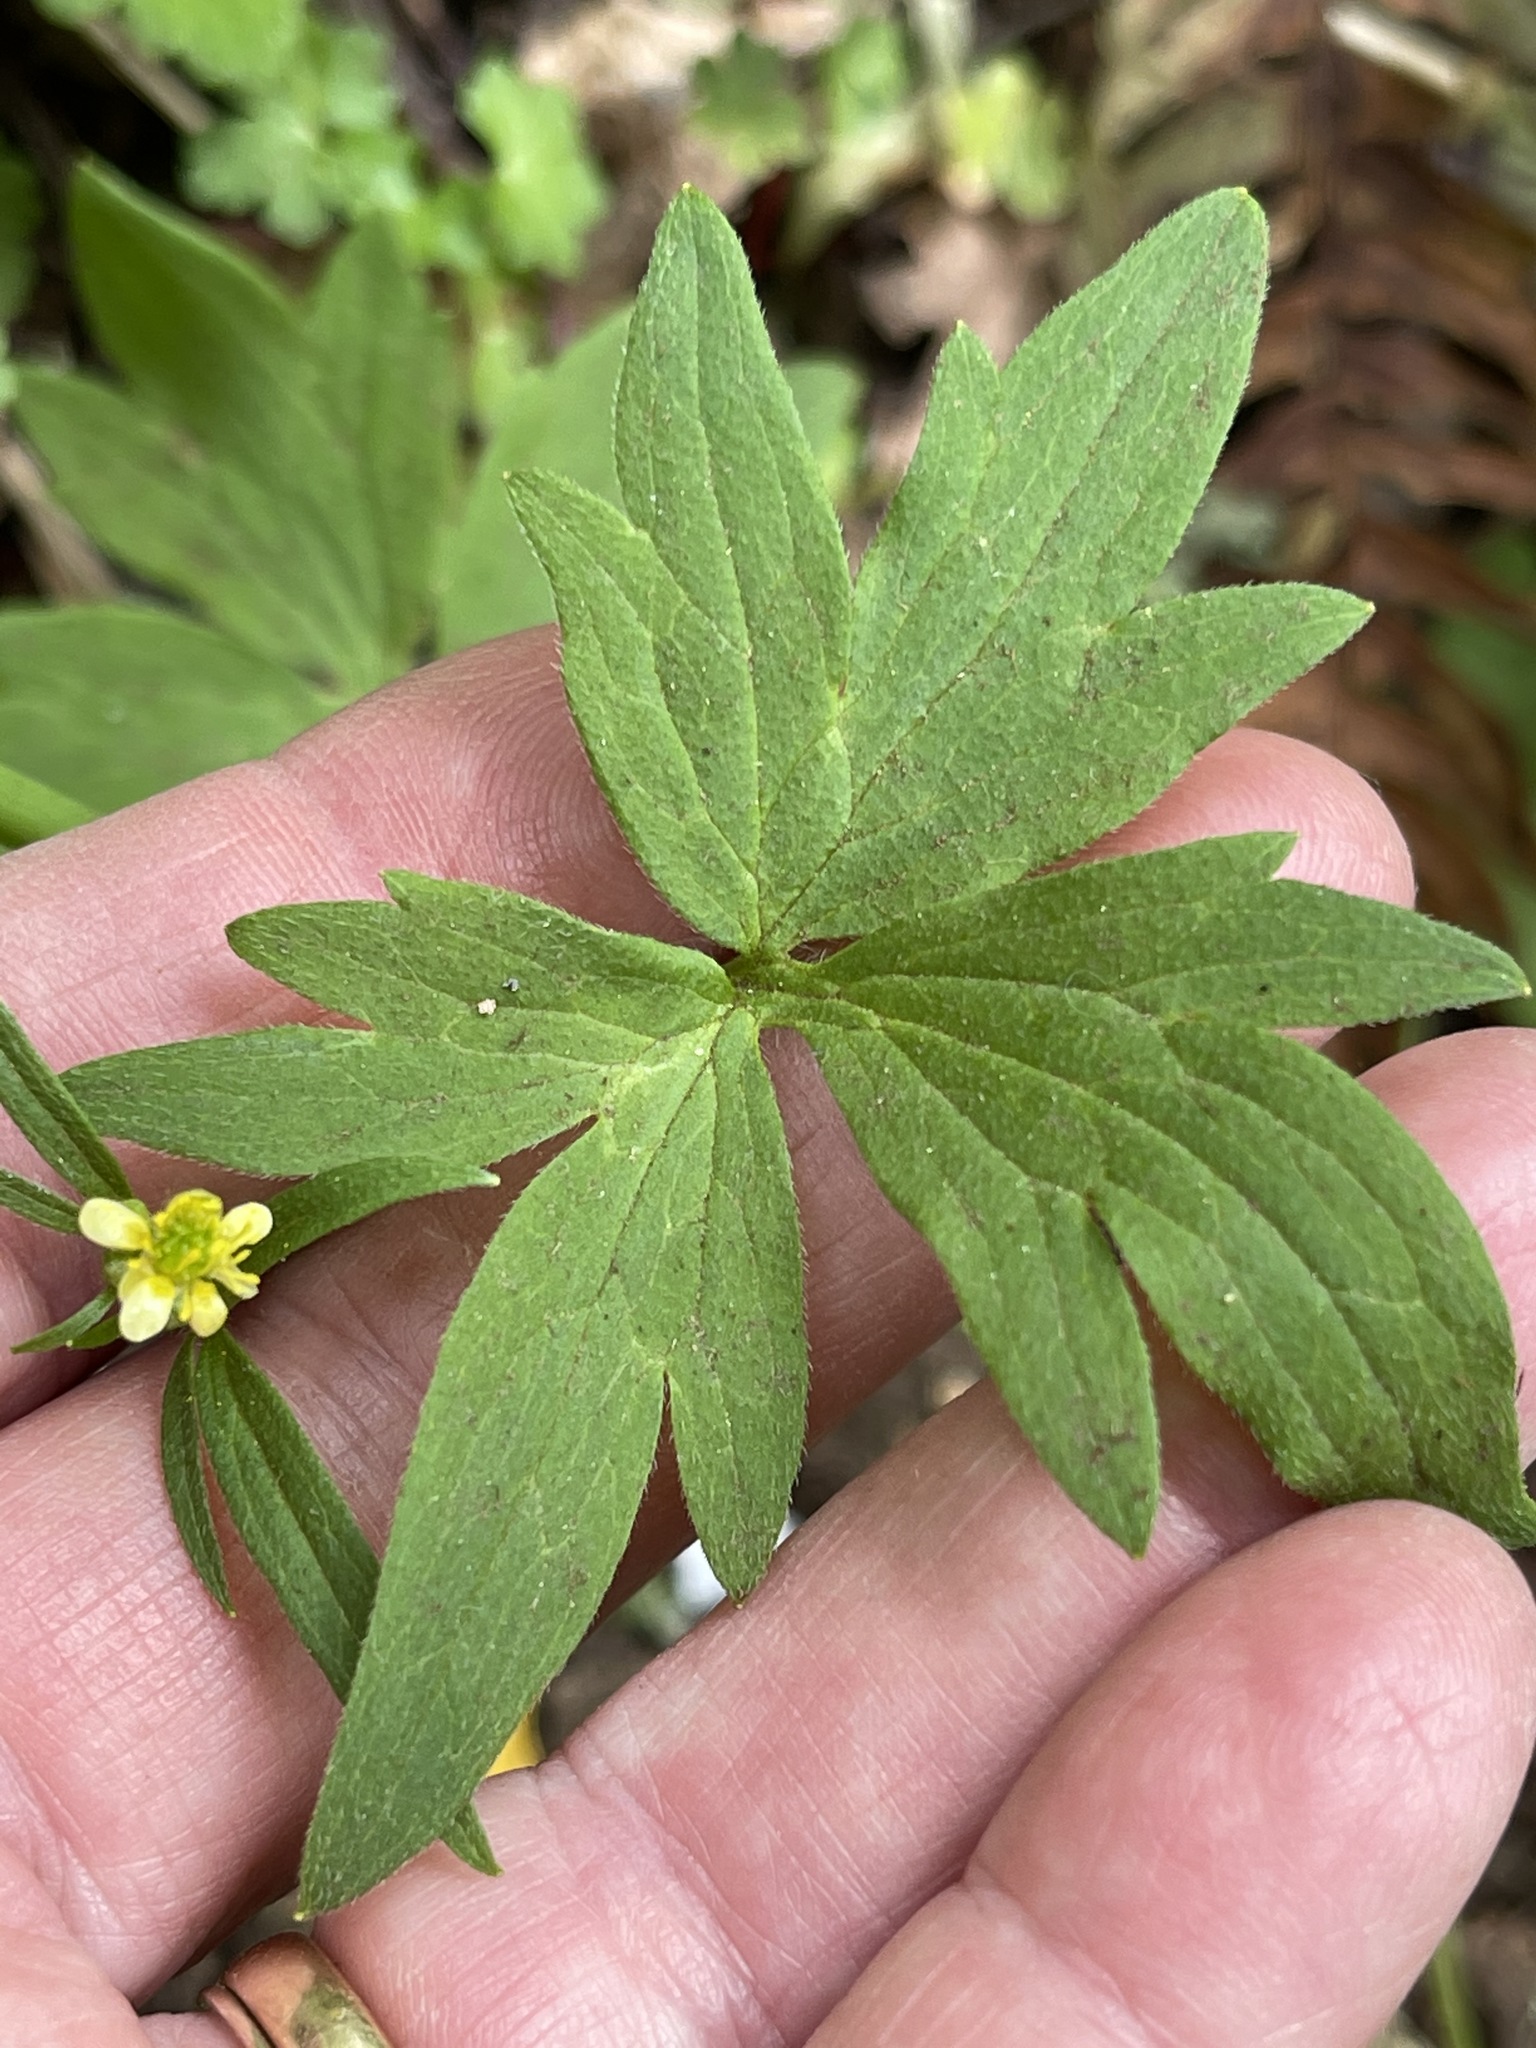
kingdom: Plantae
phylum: Tracheophyta
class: Magnoliopsida
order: Ranunculales
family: Ranunculaceae
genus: Ranunculus
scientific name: Ranunculus uncinatus
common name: Little buttercup
